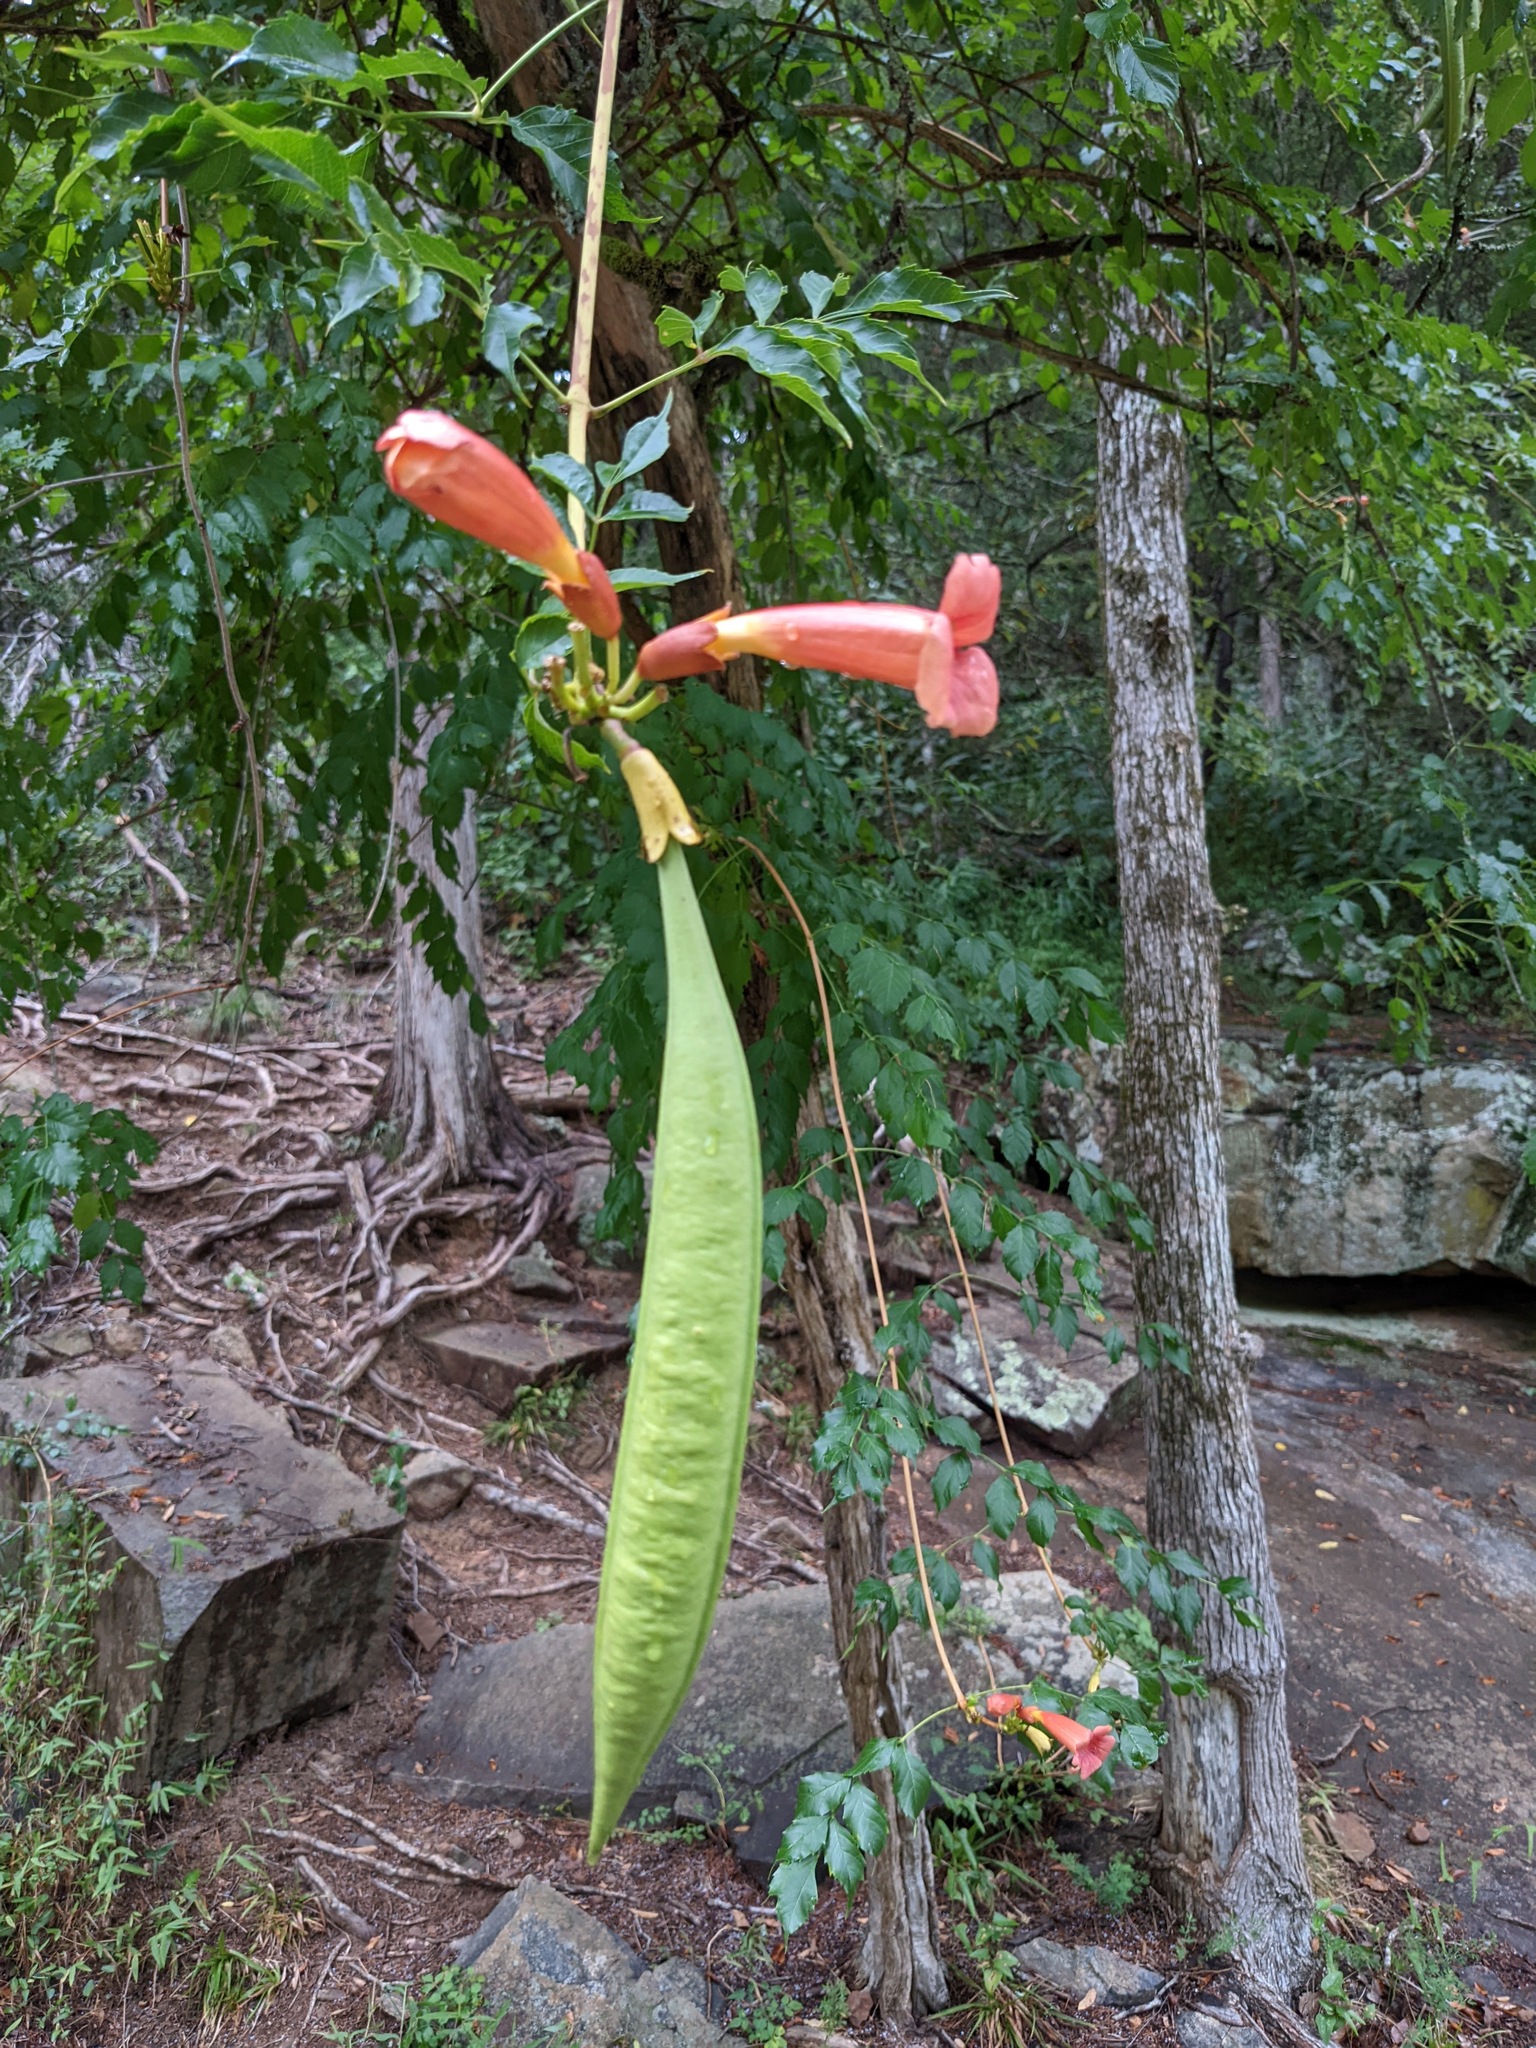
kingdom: Plantae
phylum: Tracheophyta
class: Magnoliopsida
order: Lamiales
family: Bignoniaceae
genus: Campsis
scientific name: Campsis radicans
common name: Trumpet-creeper
